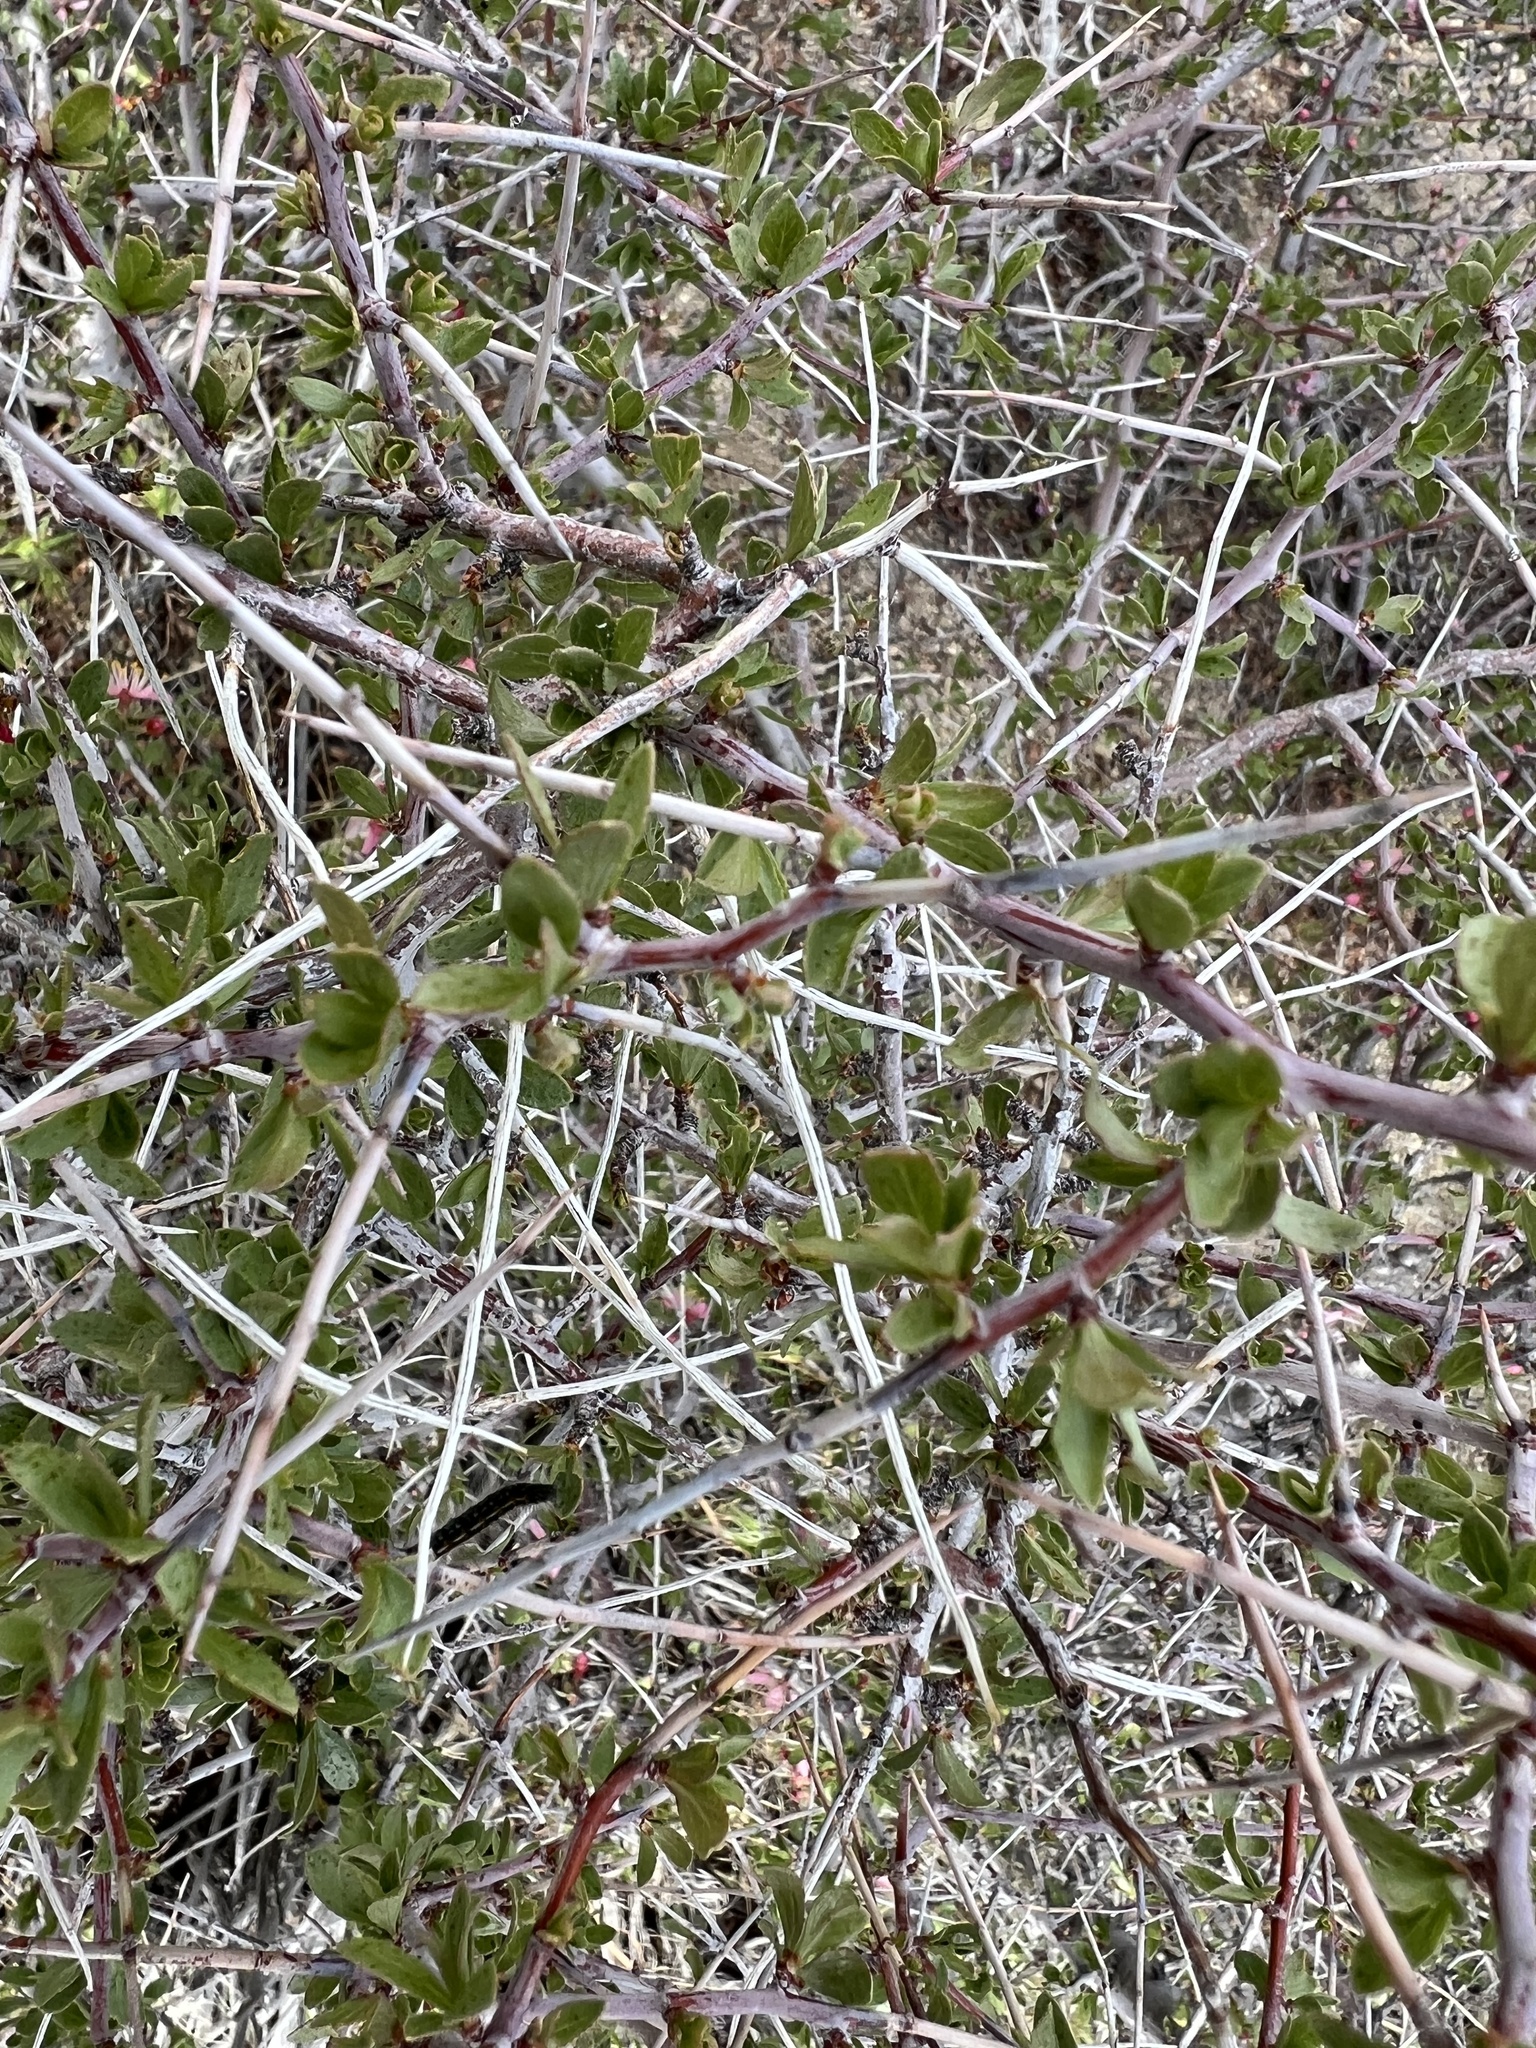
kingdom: Plantae
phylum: Tracheophyta
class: Magnoliopsida
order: Rosales
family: Rosaceae
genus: Prunus
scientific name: Prunus andersonii
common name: Desert peach
